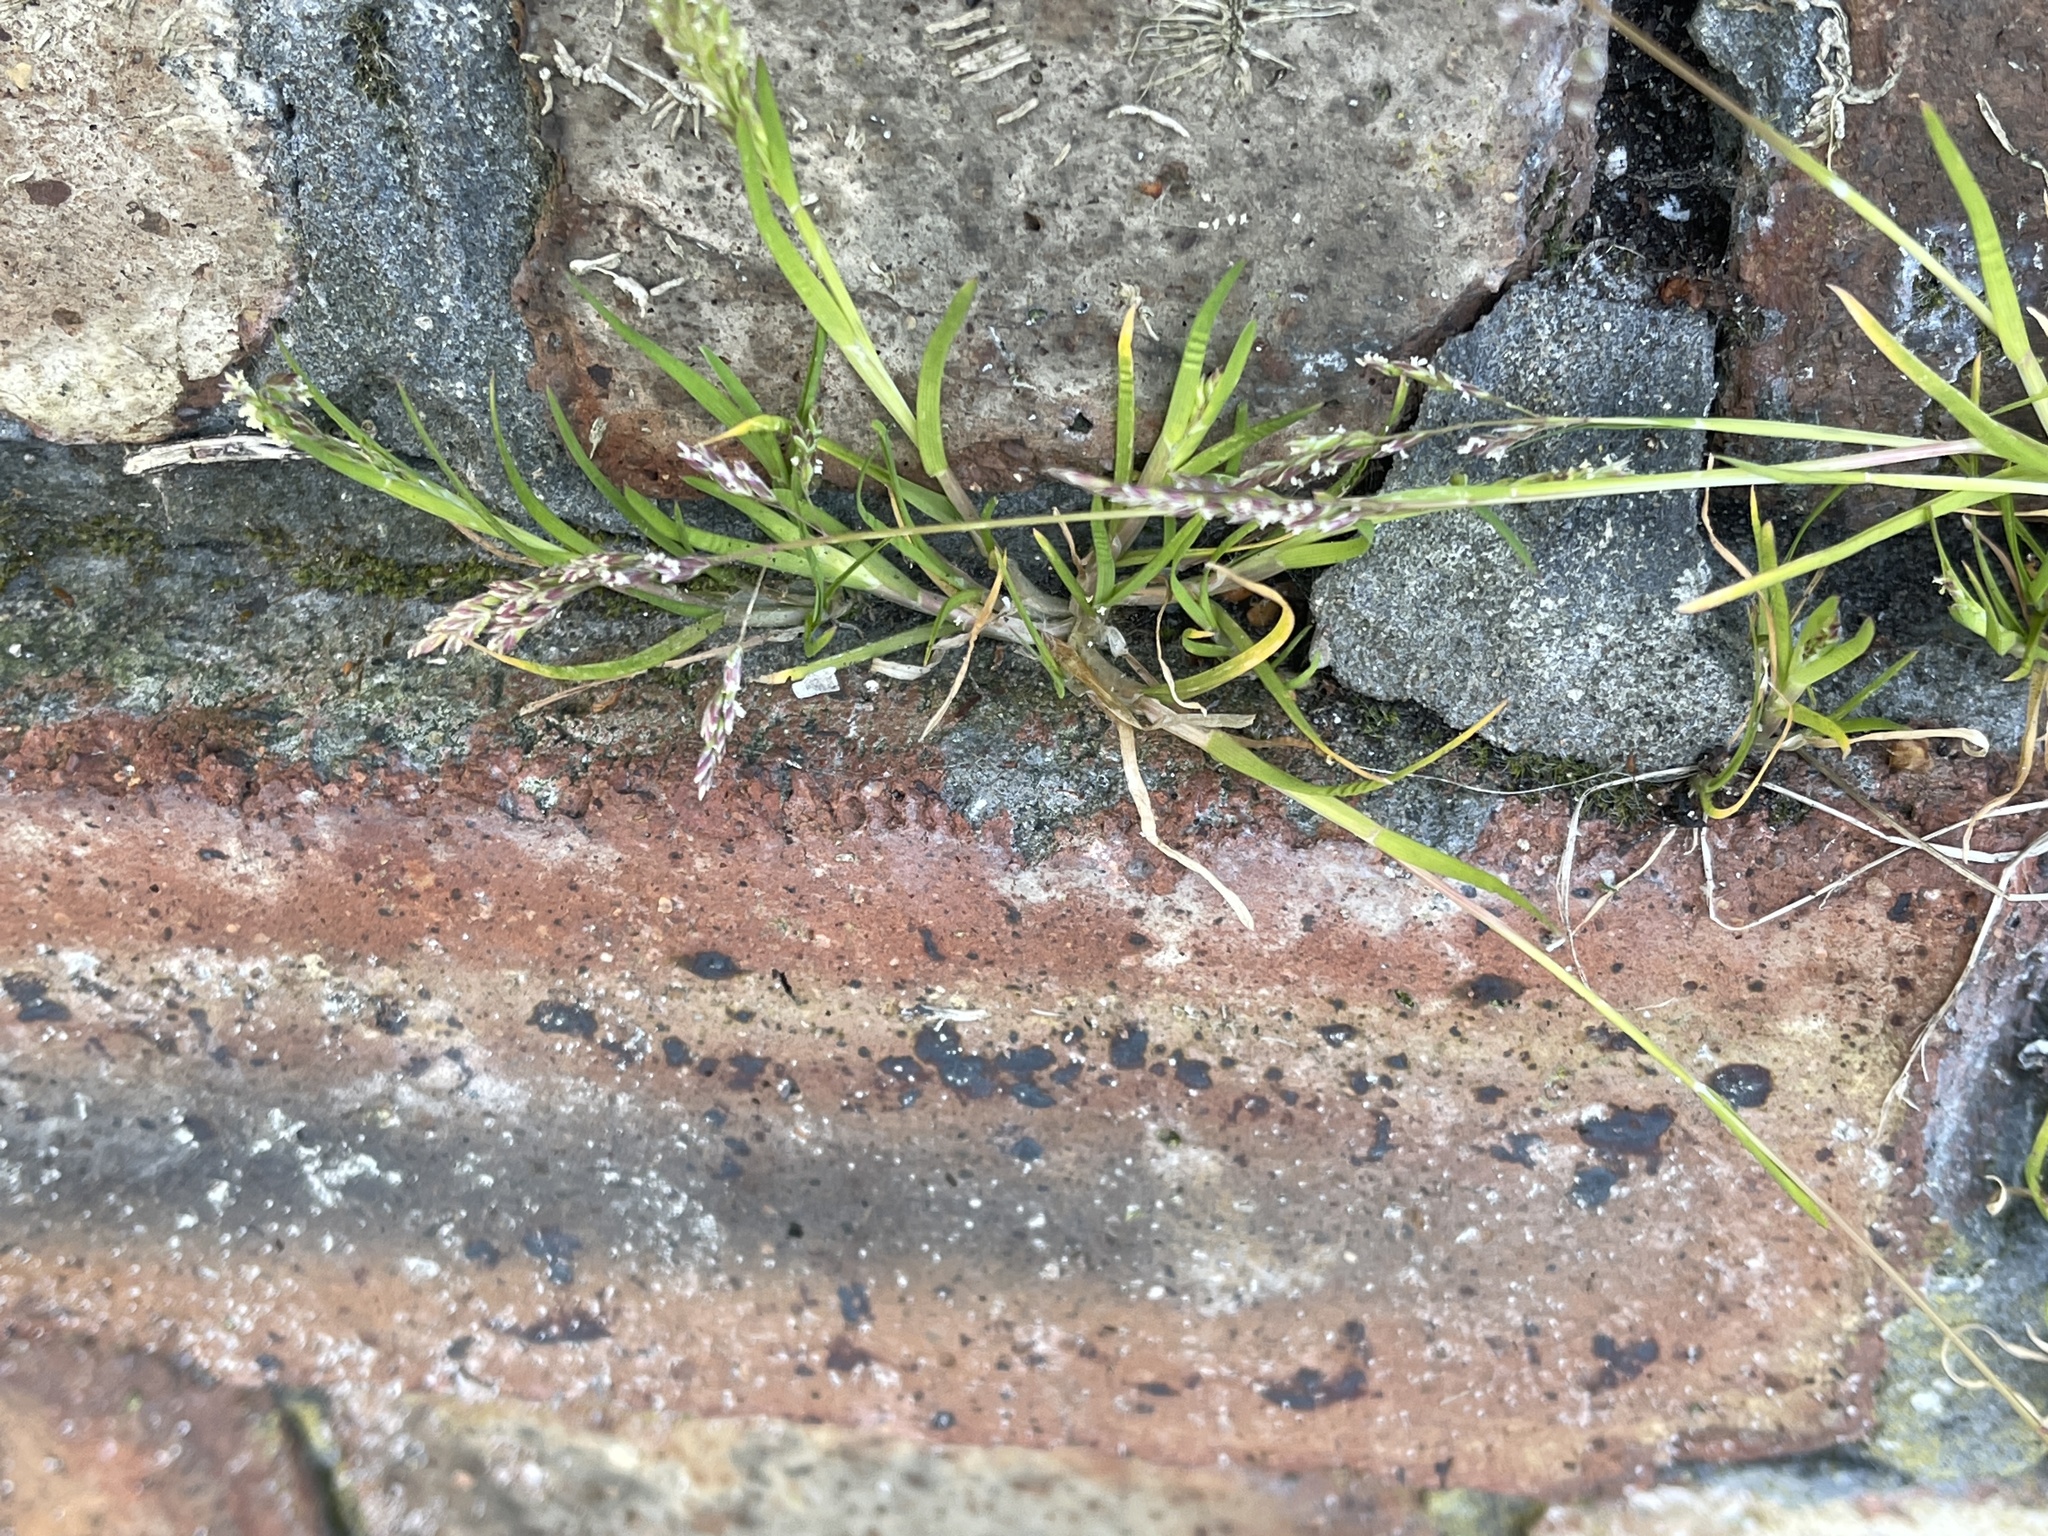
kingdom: Plantae
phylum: Tracheophyta
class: Liliopsida
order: Poales
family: Poaceae
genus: Poa
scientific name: Poa annua
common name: Annual bluegrass
